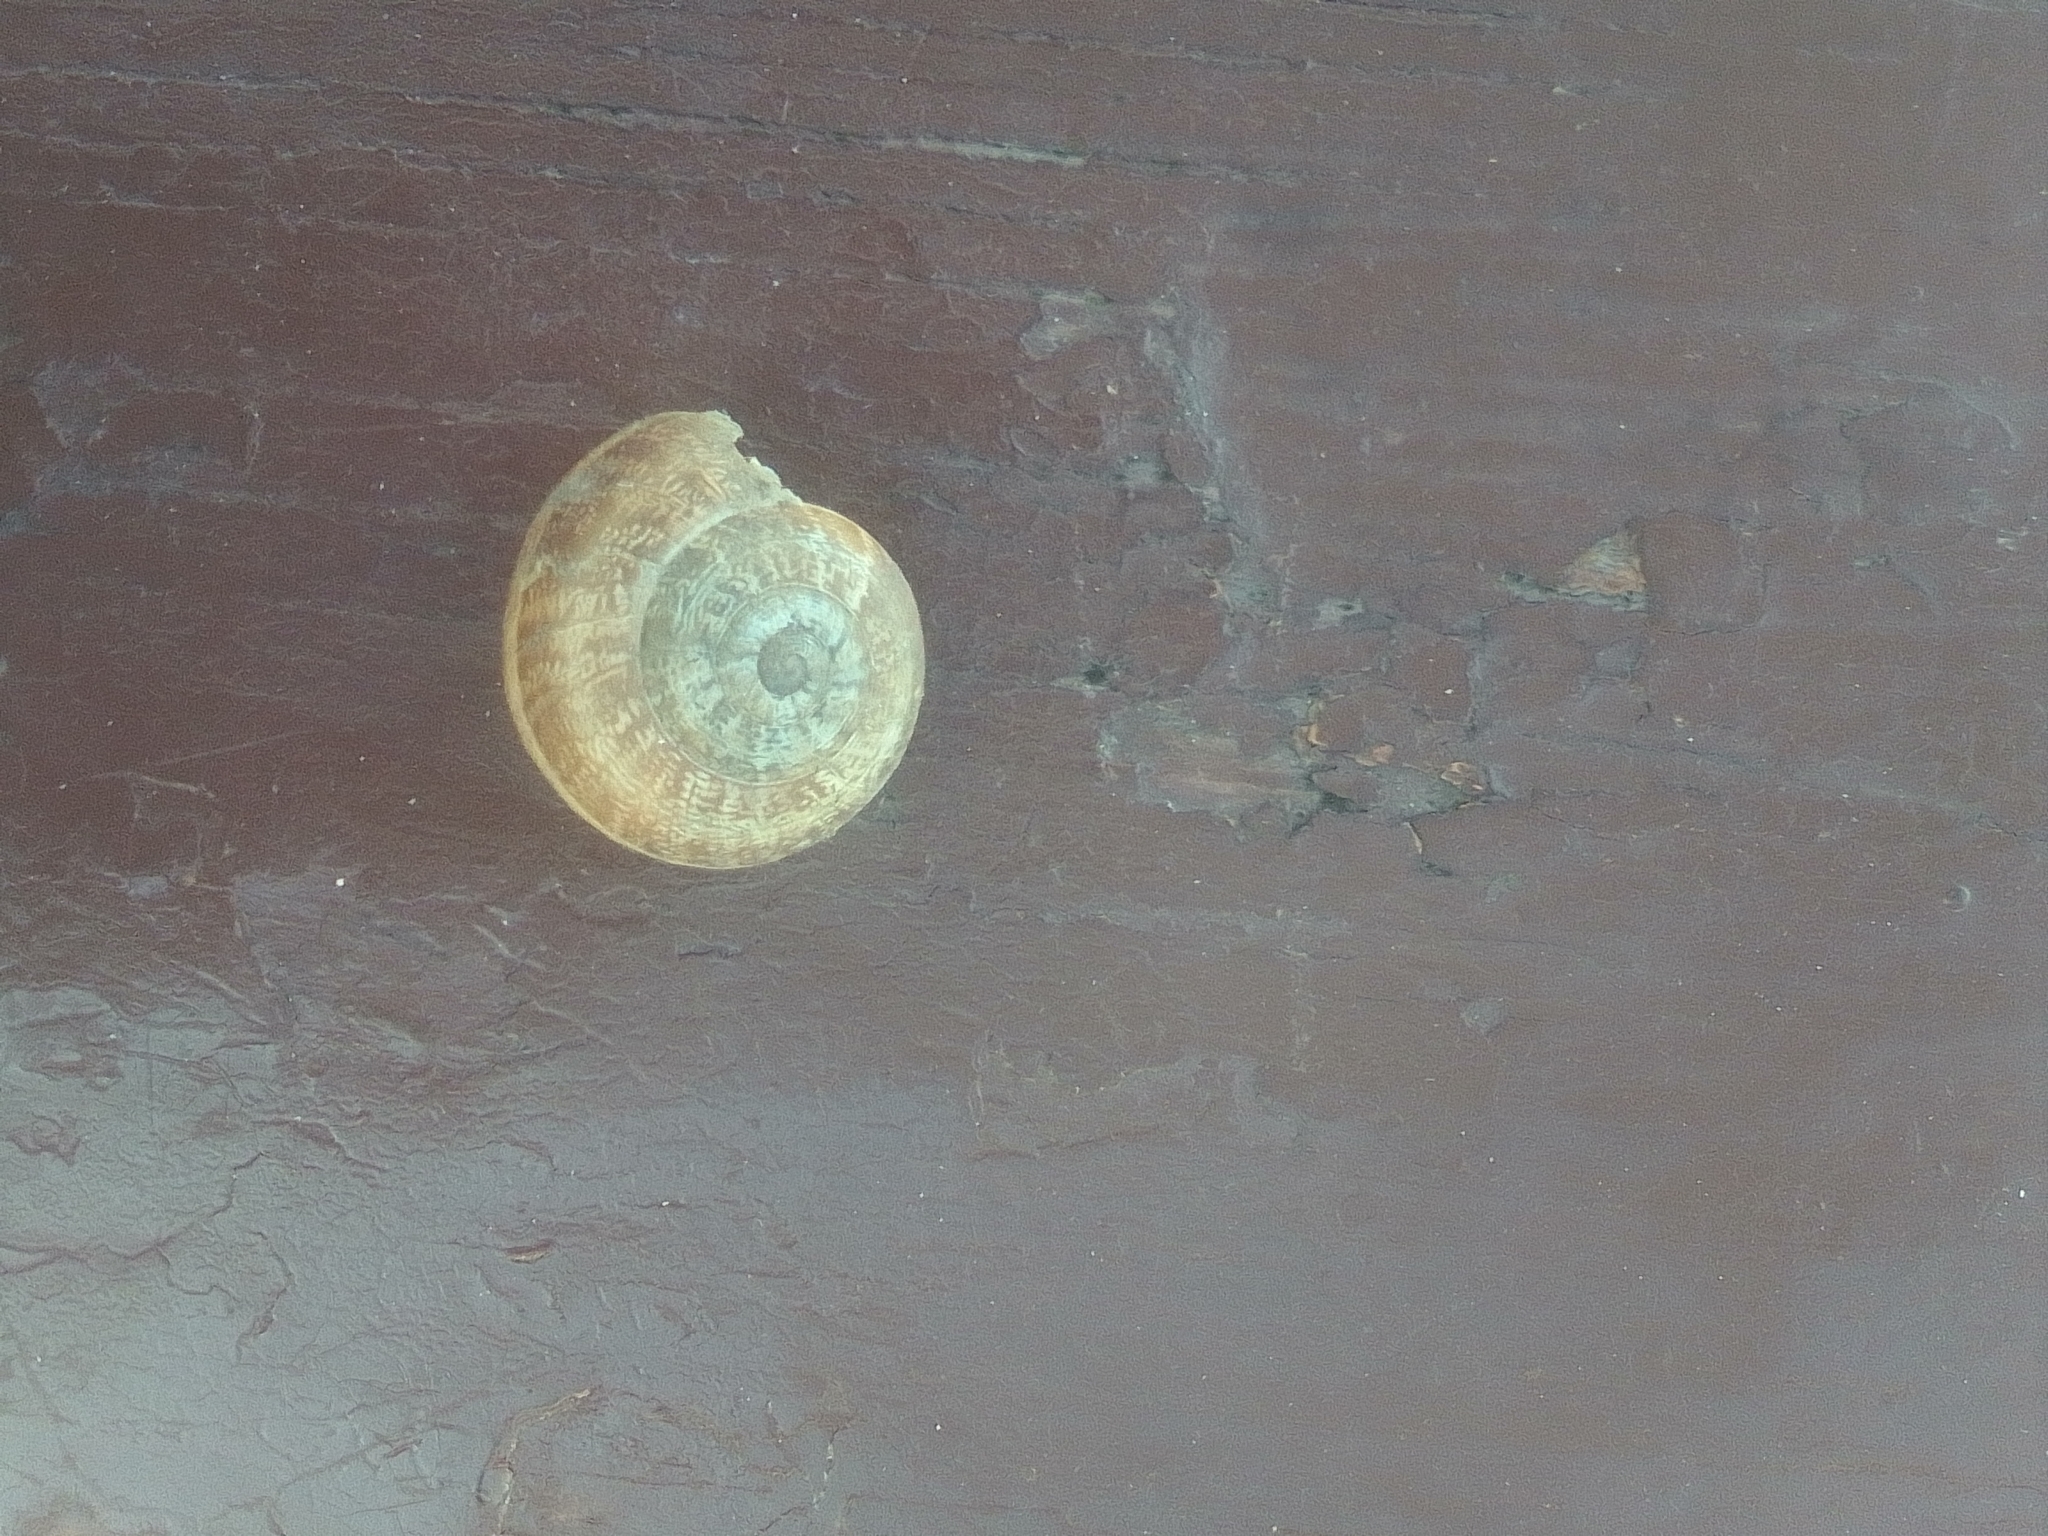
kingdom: Animalia
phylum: Mollusca
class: Gastropoda
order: Stylommatophora
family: Helicidae
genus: Eobania
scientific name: Eobania vermiculata
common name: Chocolateband snail
